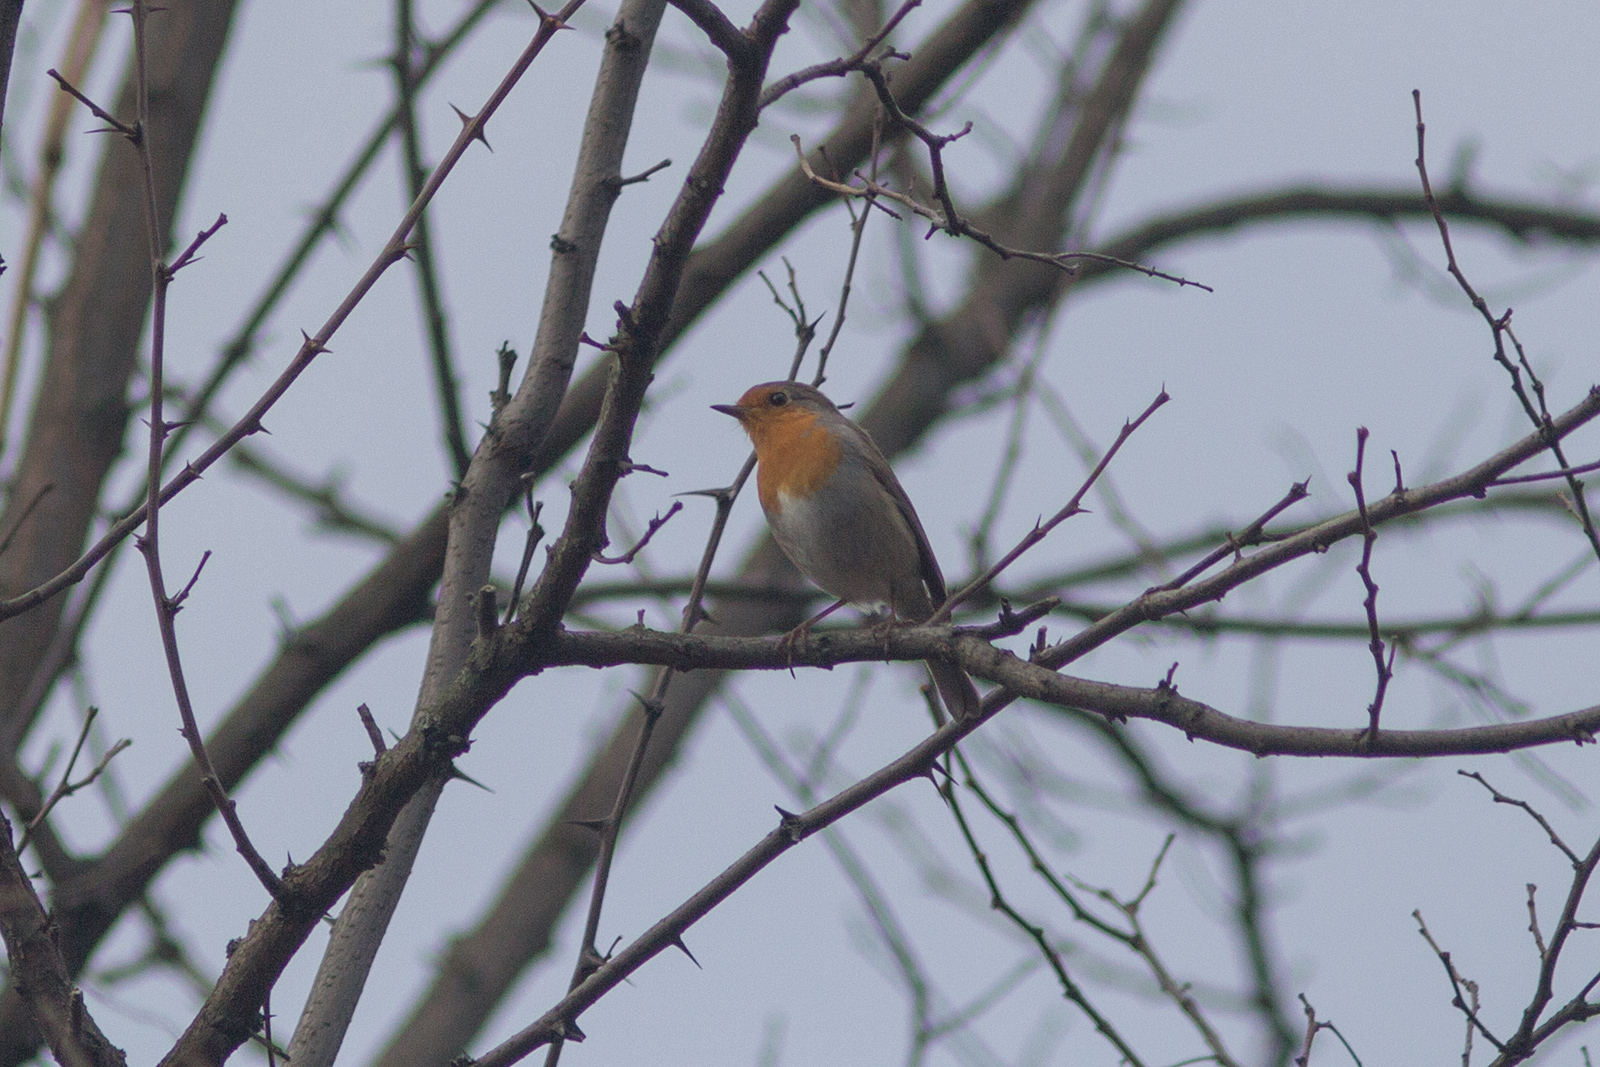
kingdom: Animalia
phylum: Chordata
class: Aves
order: Passeriformes
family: Muscicapidae
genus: Erithacus
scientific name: Erithacus rubecula
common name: European robin
